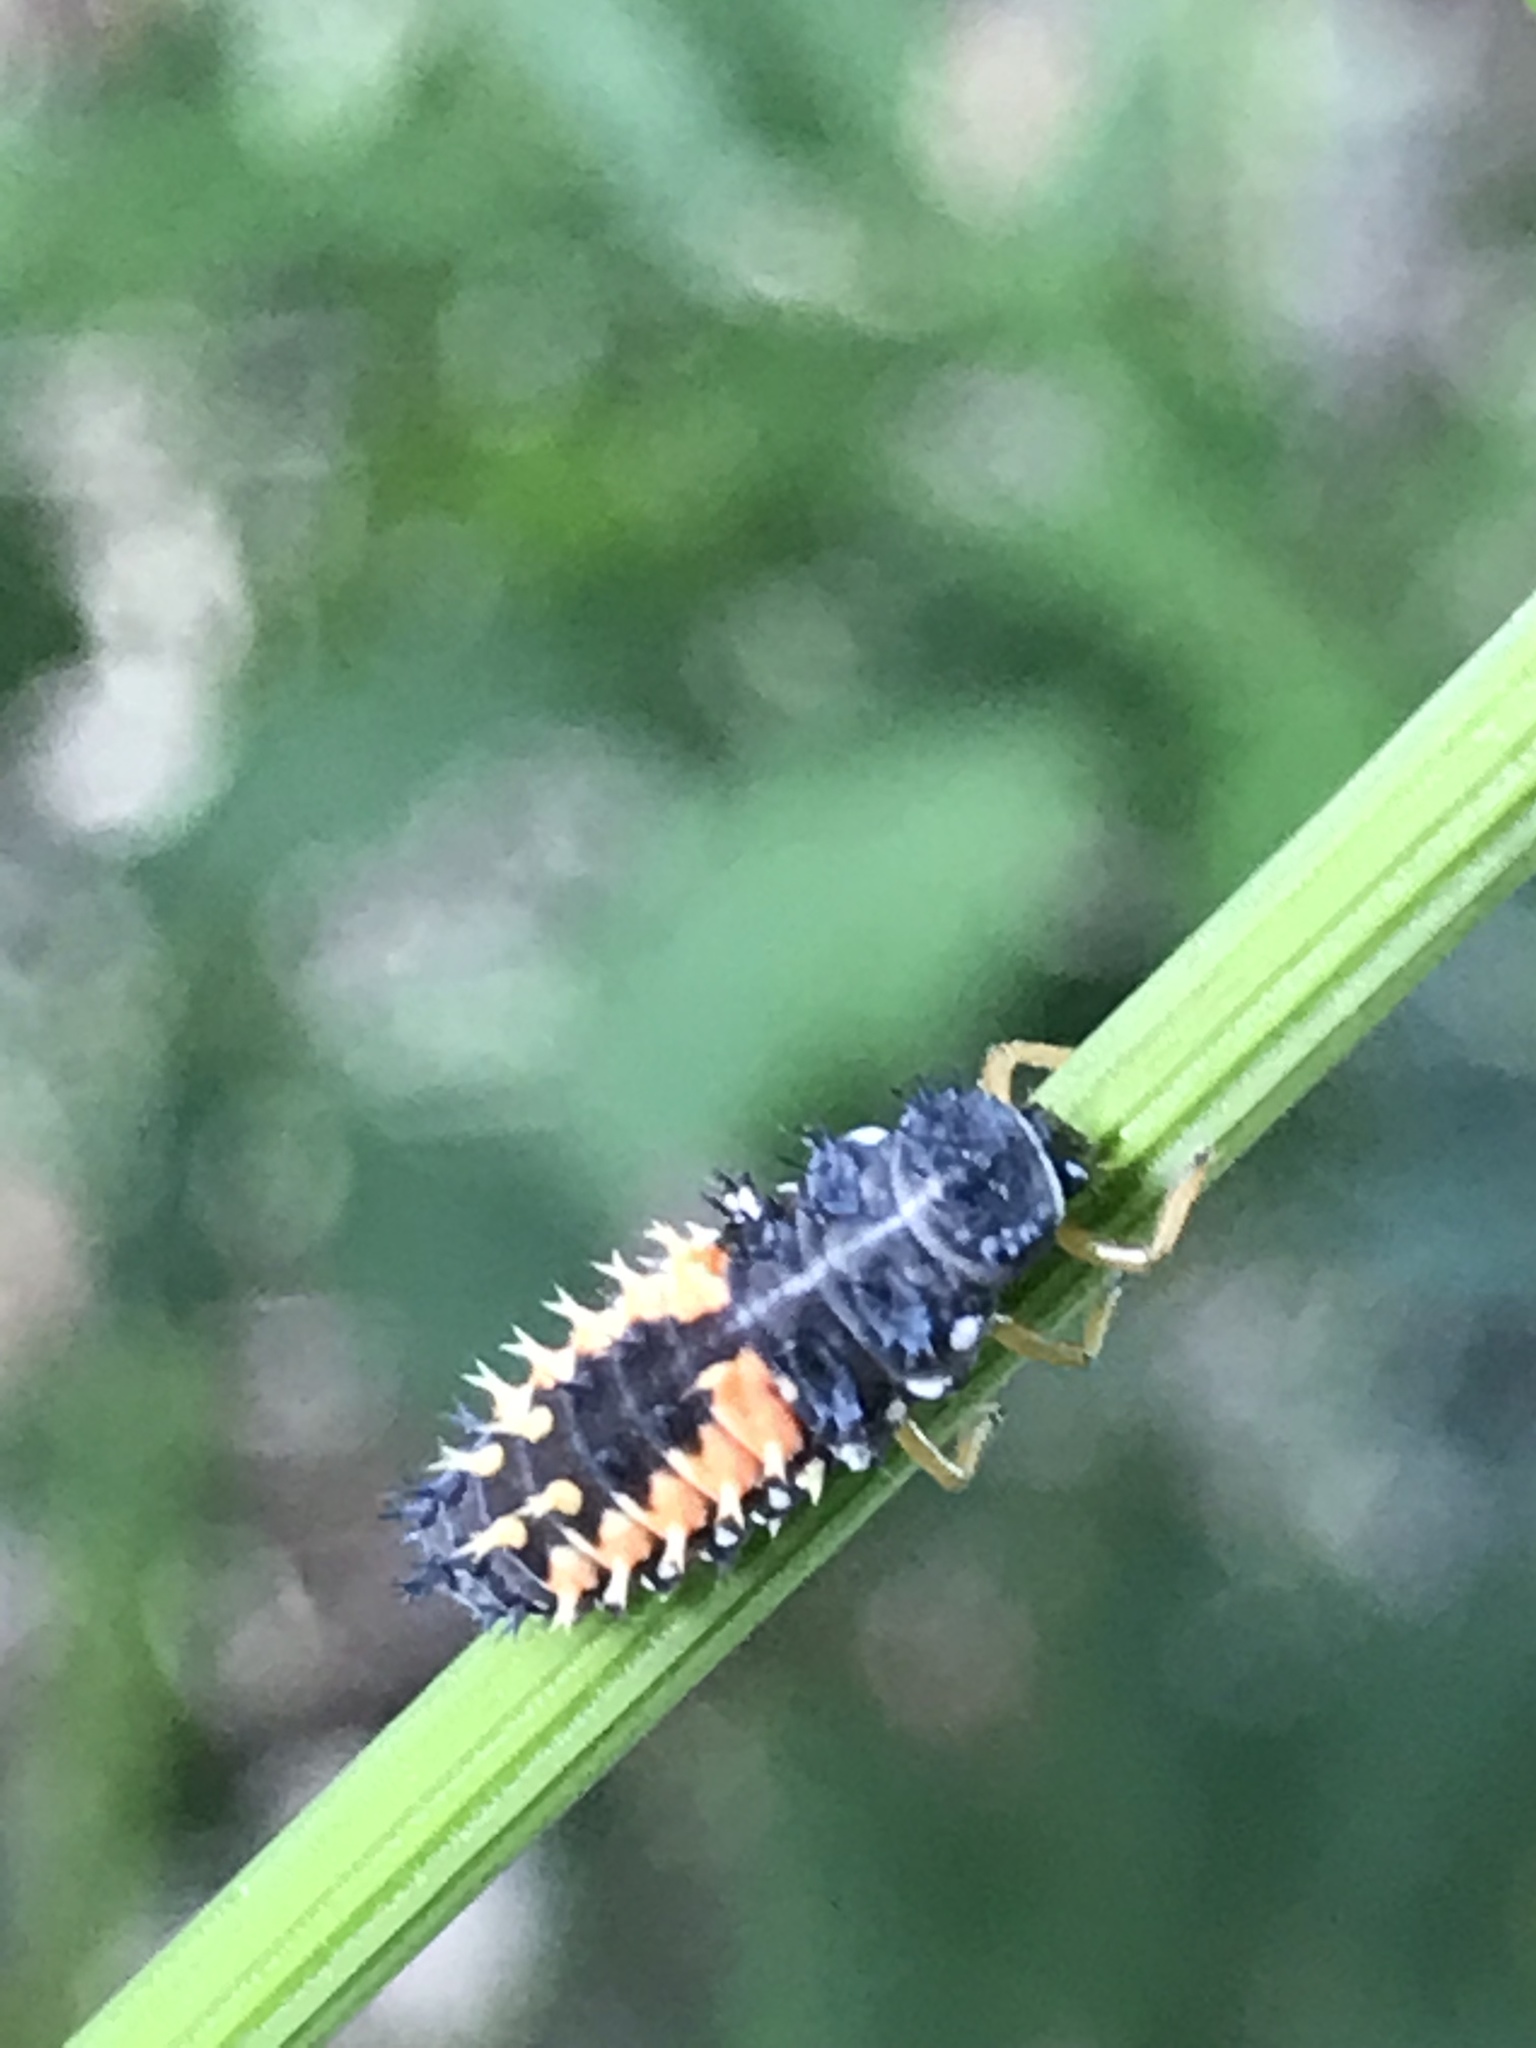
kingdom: Animalia
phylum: Arthropoda
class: Insecta
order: Coleoptera
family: Coccinellidae
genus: Harmonia
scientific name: Harmonia axyridis
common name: Harlequin ladybird
